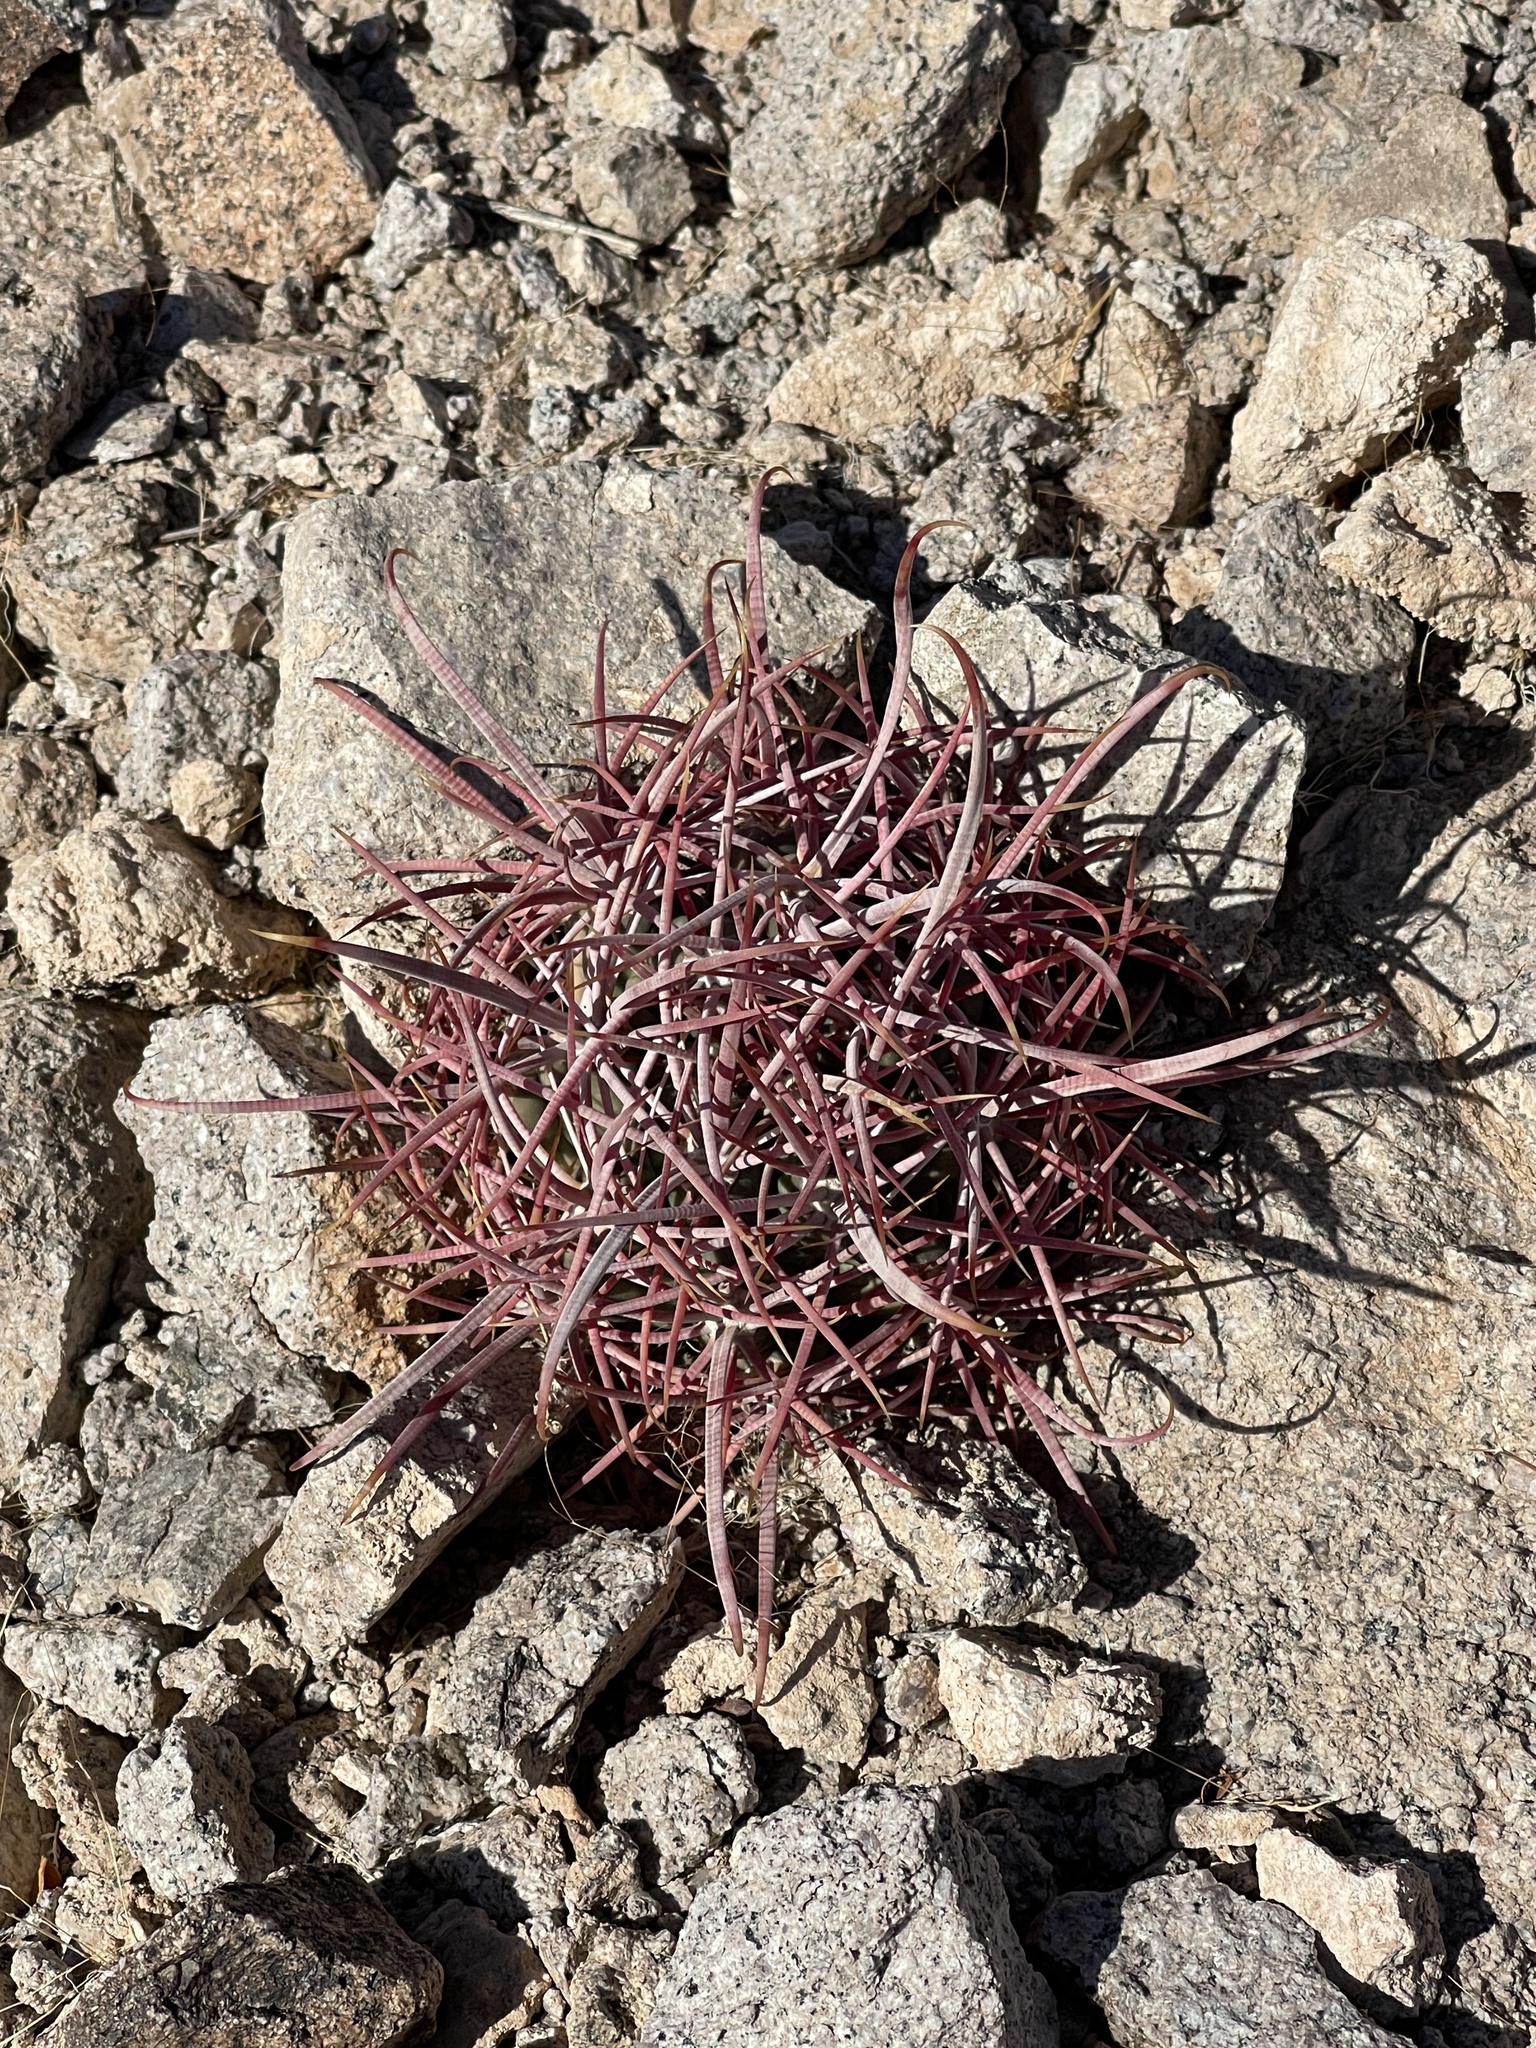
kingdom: Plantae
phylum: Tracheophyta
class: Magnoliopsida
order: Caryophyllales
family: Cactaceae
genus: Ferocactus
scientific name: Ferocactus cylindraceus
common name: California barrel cactus
